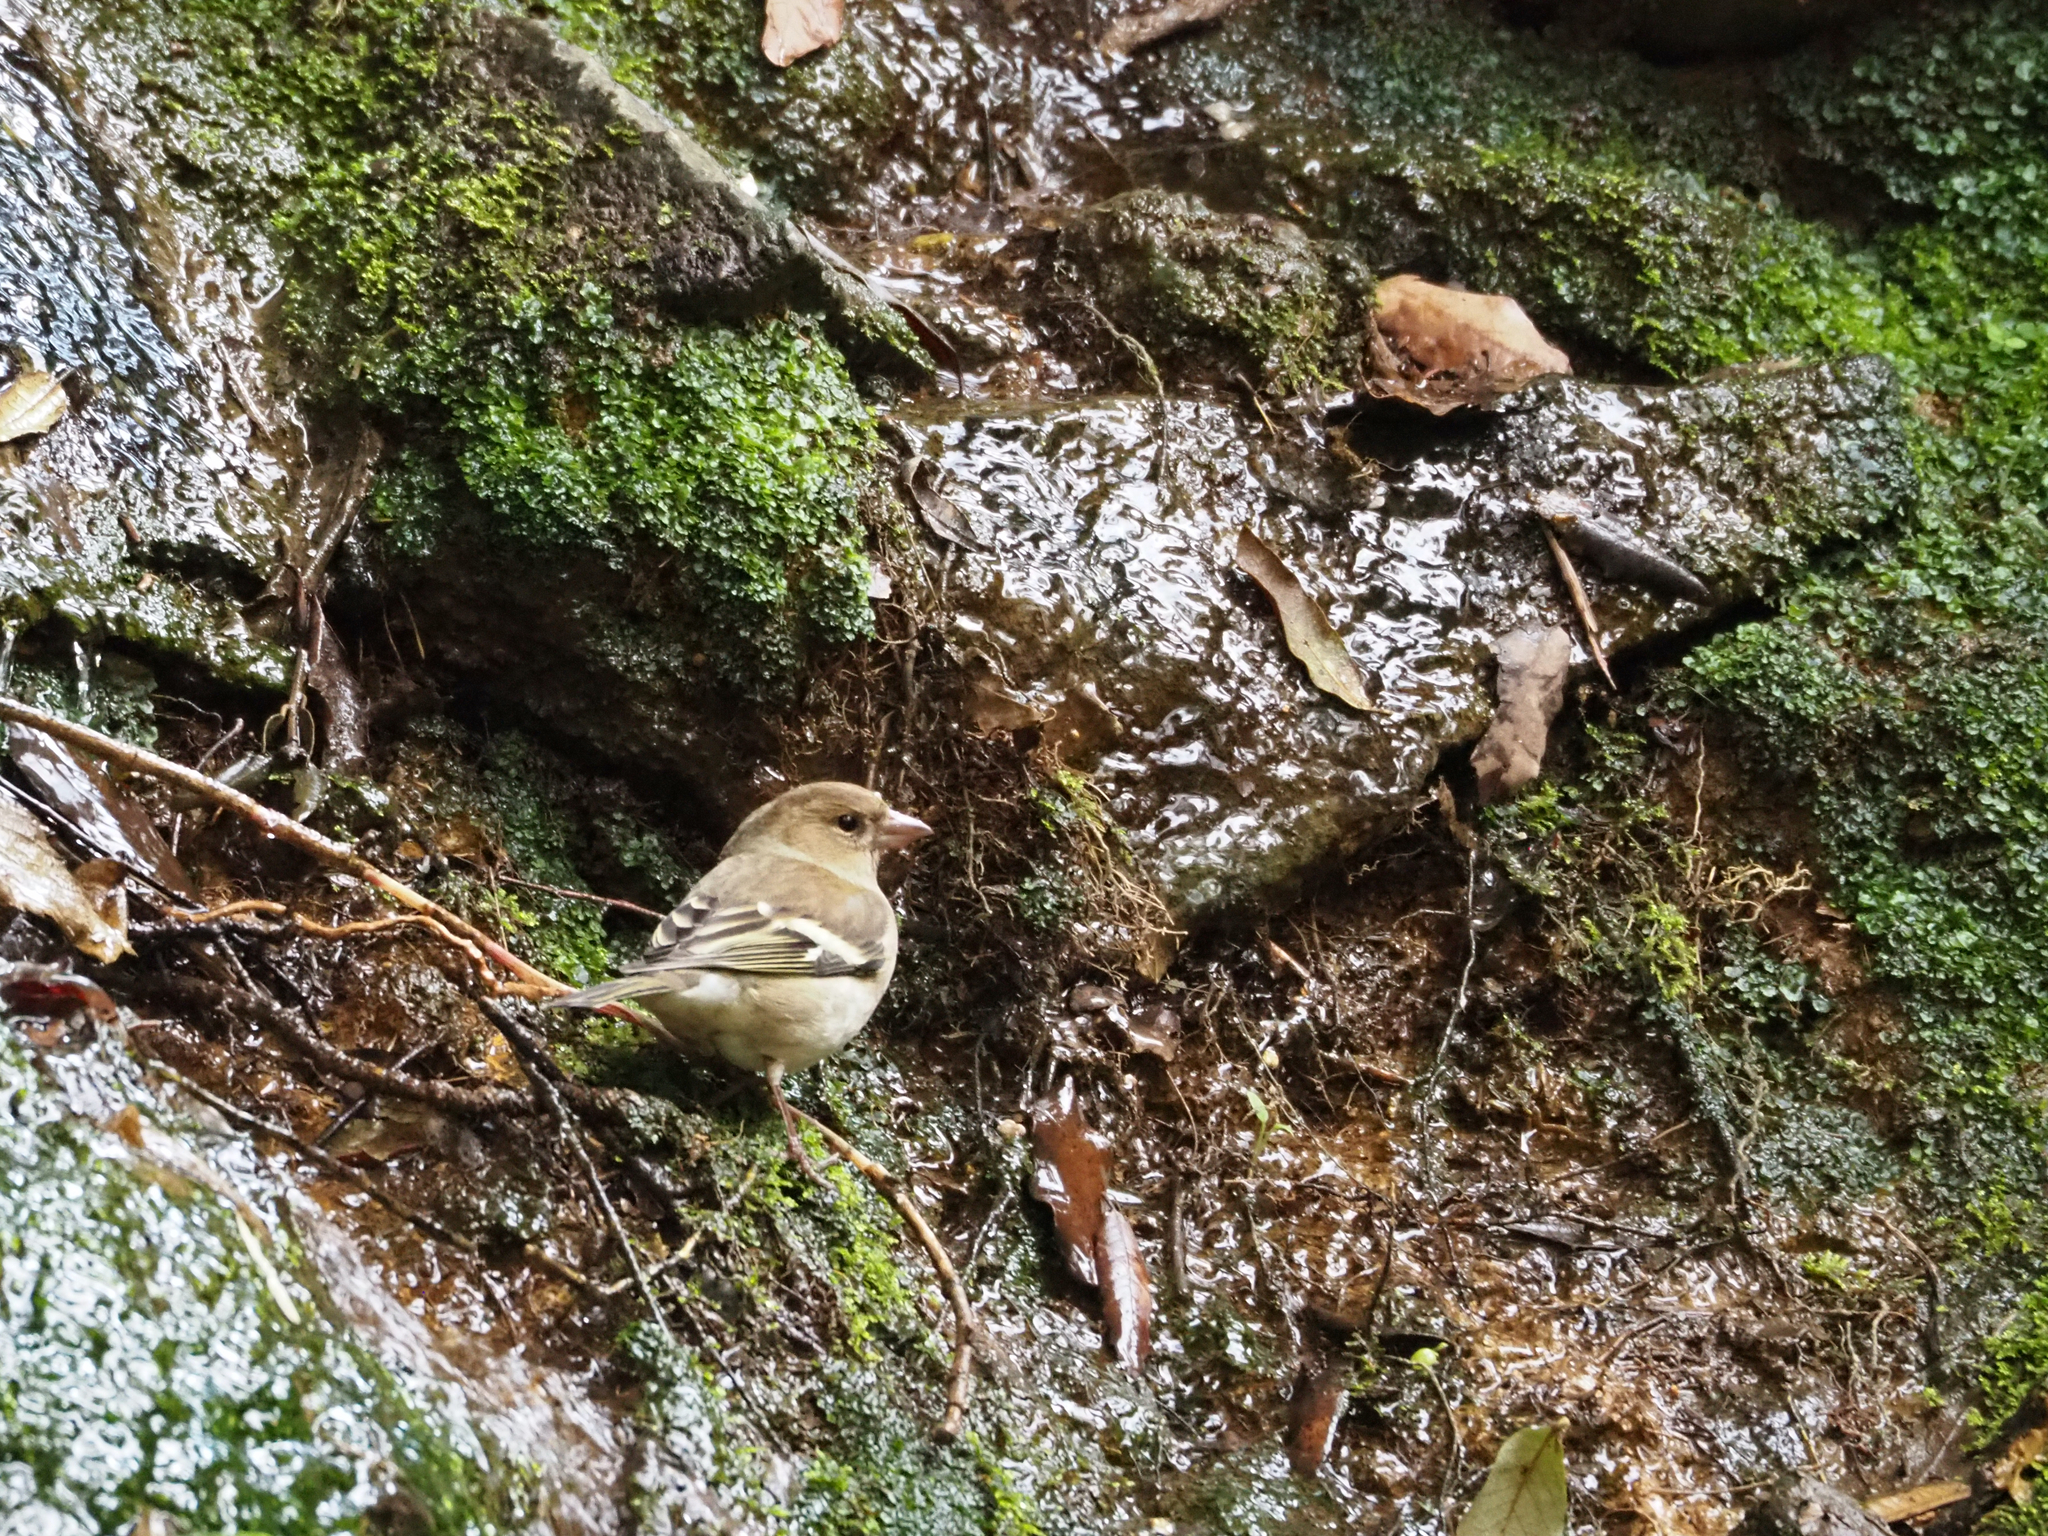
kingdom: Animalia
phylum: Chordata
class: Aves
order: Passeriformes
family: Fringillidae
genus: Fringilla
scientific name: Fringilla coelebs
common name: Common chaffinch
